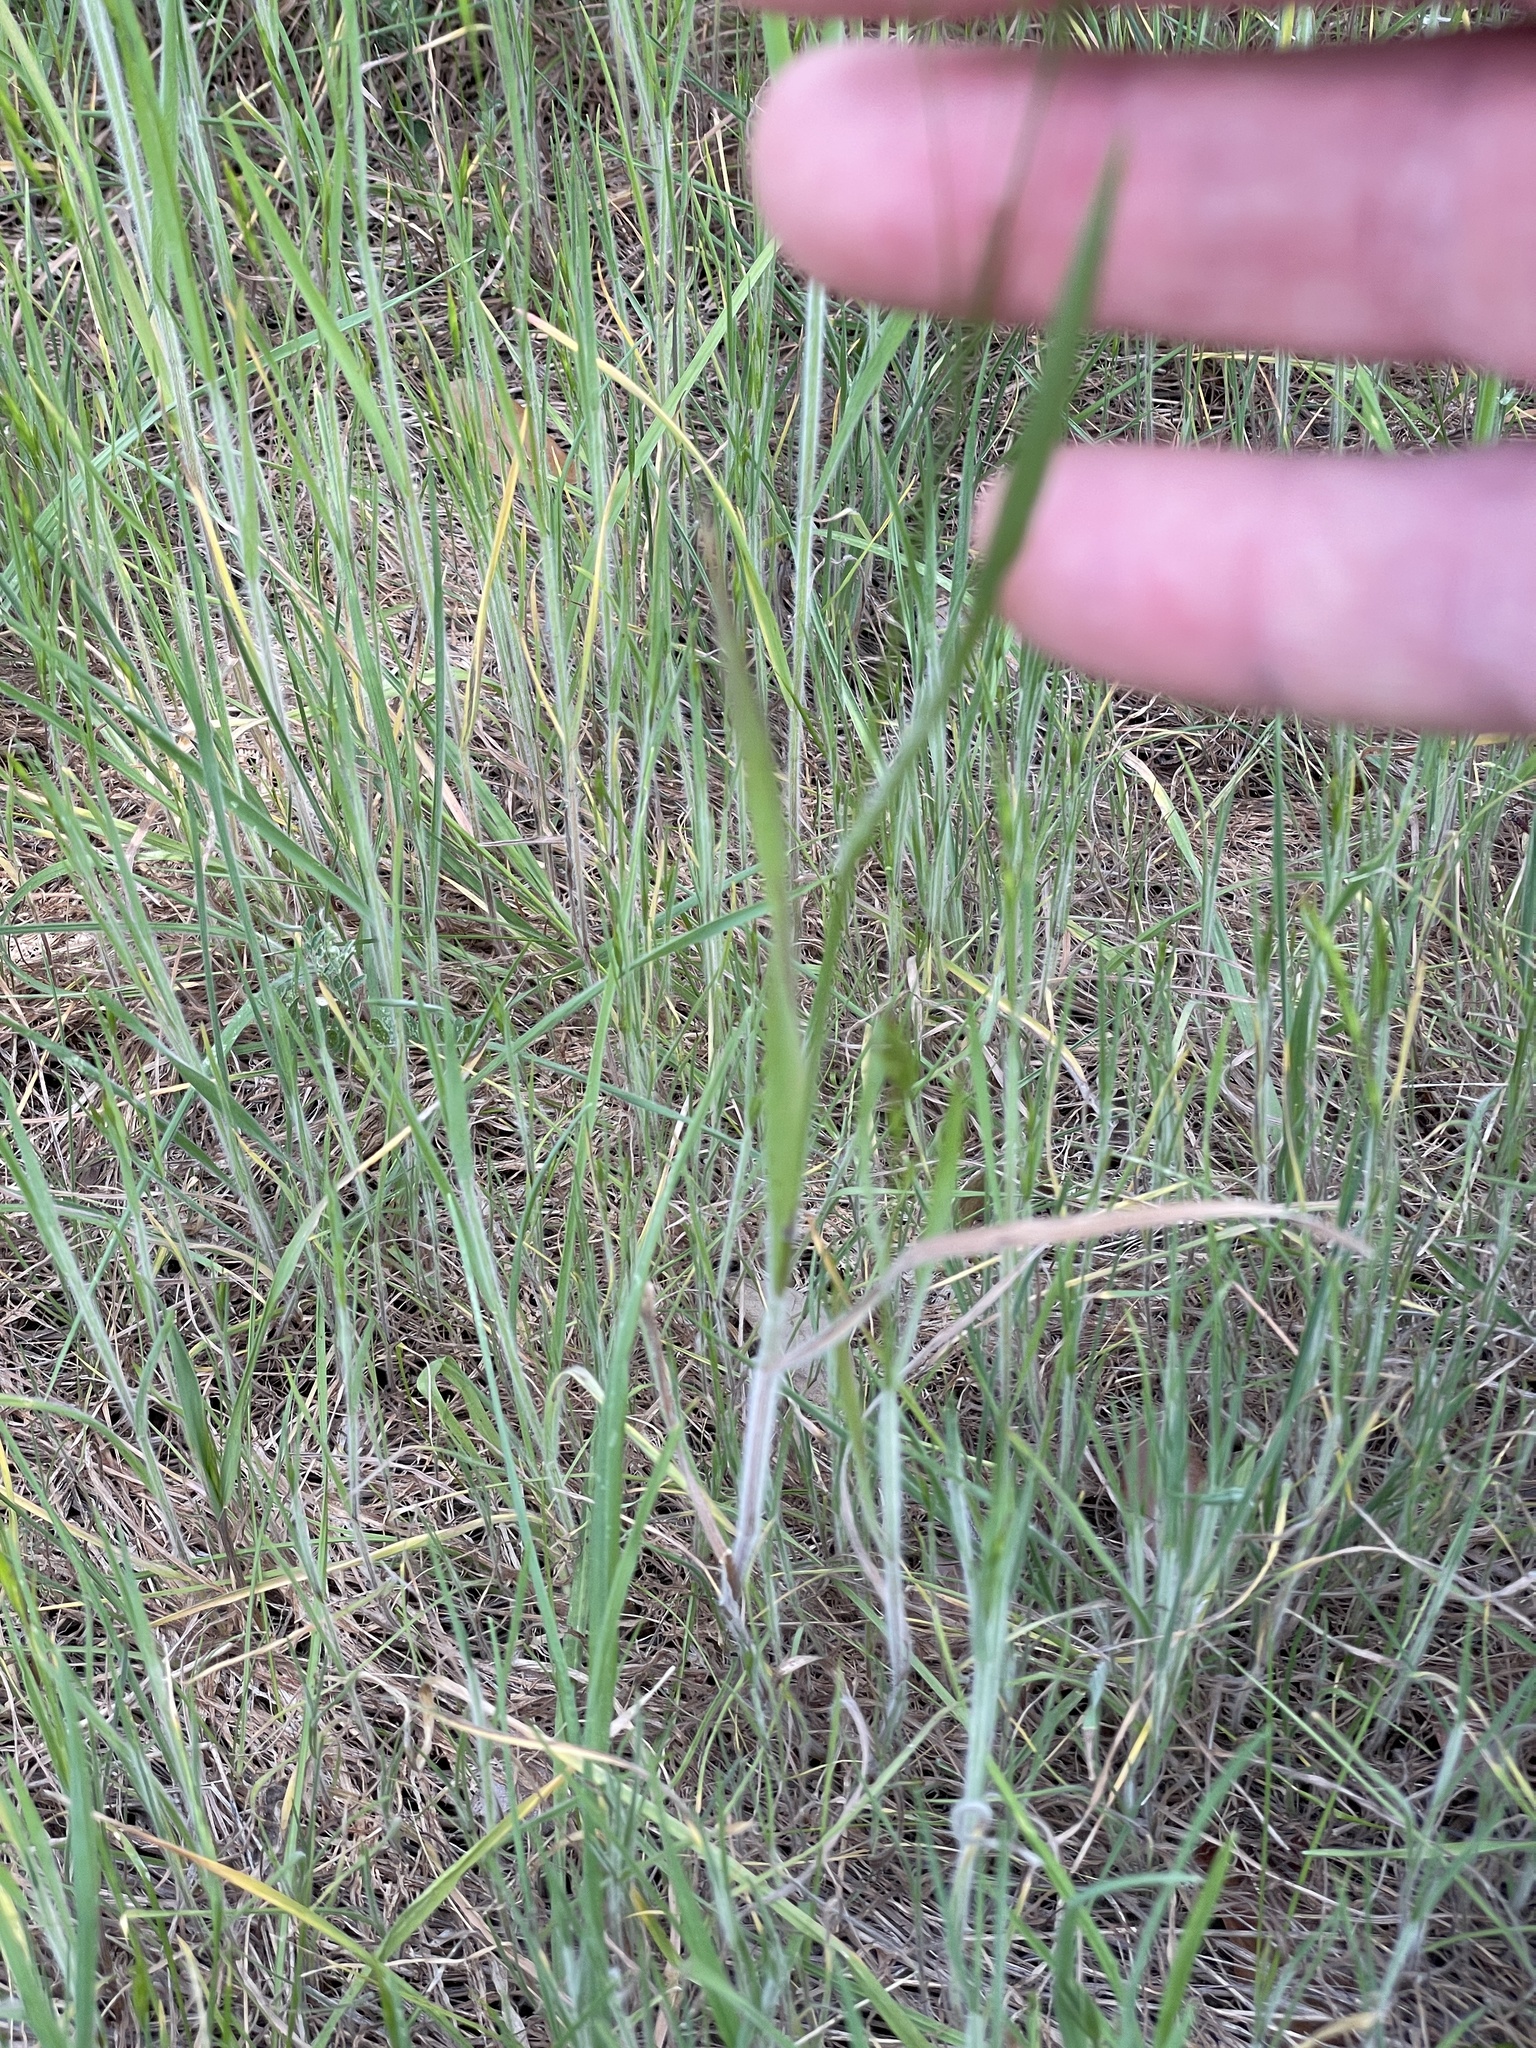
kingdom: Plantae
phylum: Tracheophyta
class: Liliopsida
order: Poales
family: Poaceae
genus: Bromus
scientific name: Bromus japonicus
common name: Japanese brome
